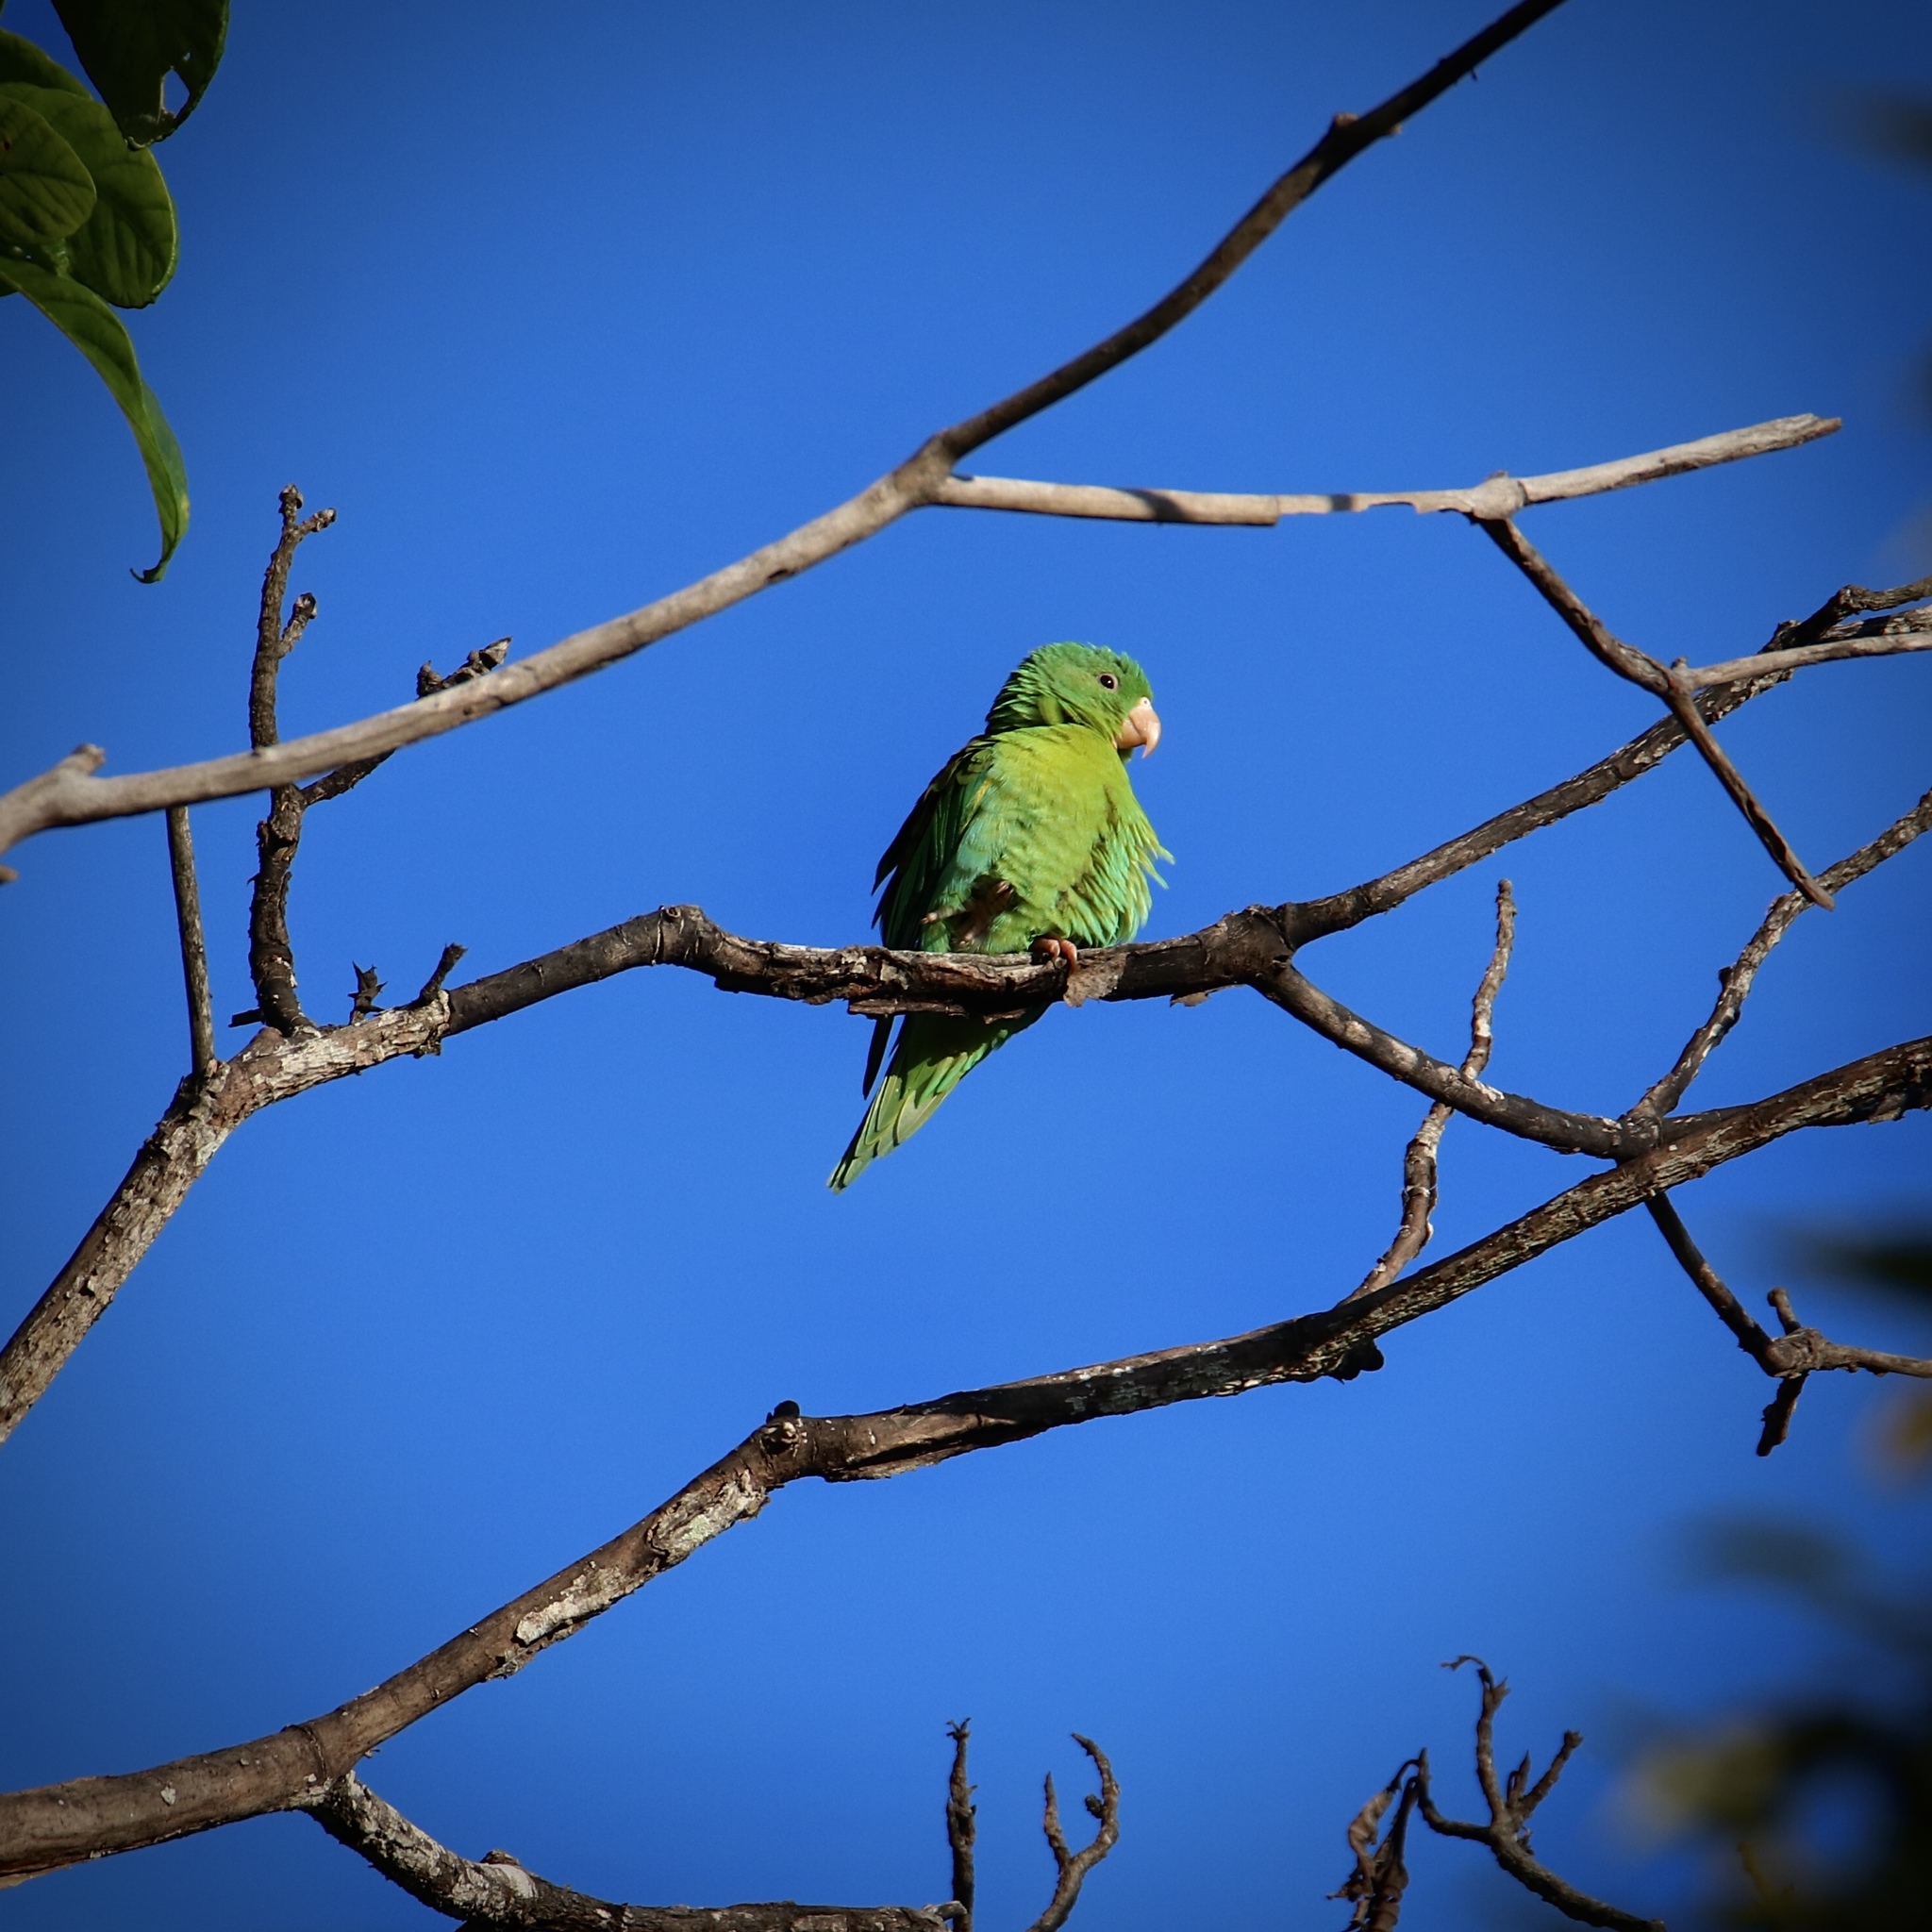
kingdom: Animalia
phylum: Chordata
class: Aves
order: Psittaciformes
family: Psittacidae
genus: Brotogeris
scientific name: Brotogeris jugularis
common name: Orange-chinned parakeet
